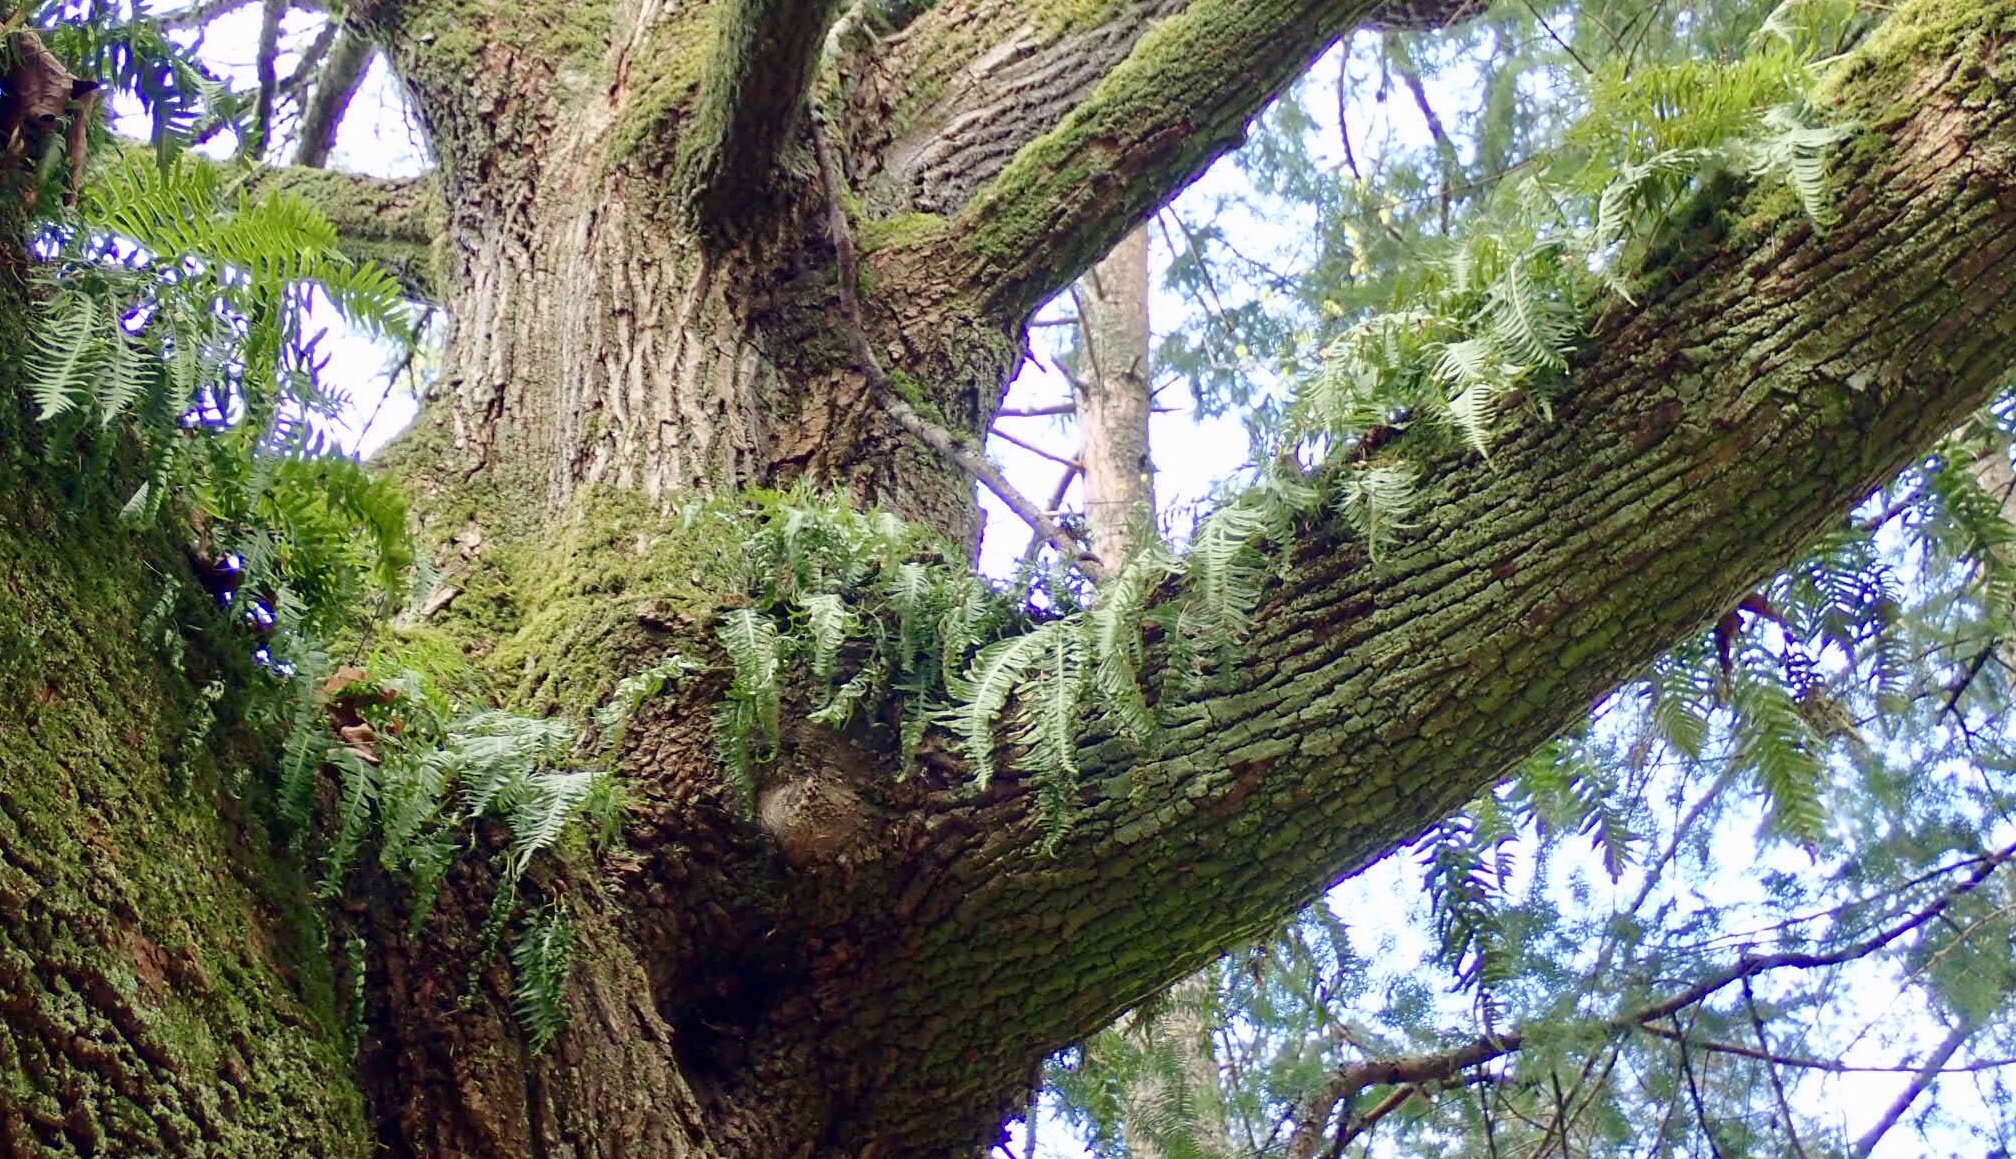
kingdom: Plantae
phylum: Tracheophyta
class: Polypodiopsida
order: Polypodiales
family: Polypodiaceae
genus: Polypodium
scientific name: Polypodium glycyrrhiza
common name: Licorice fern
